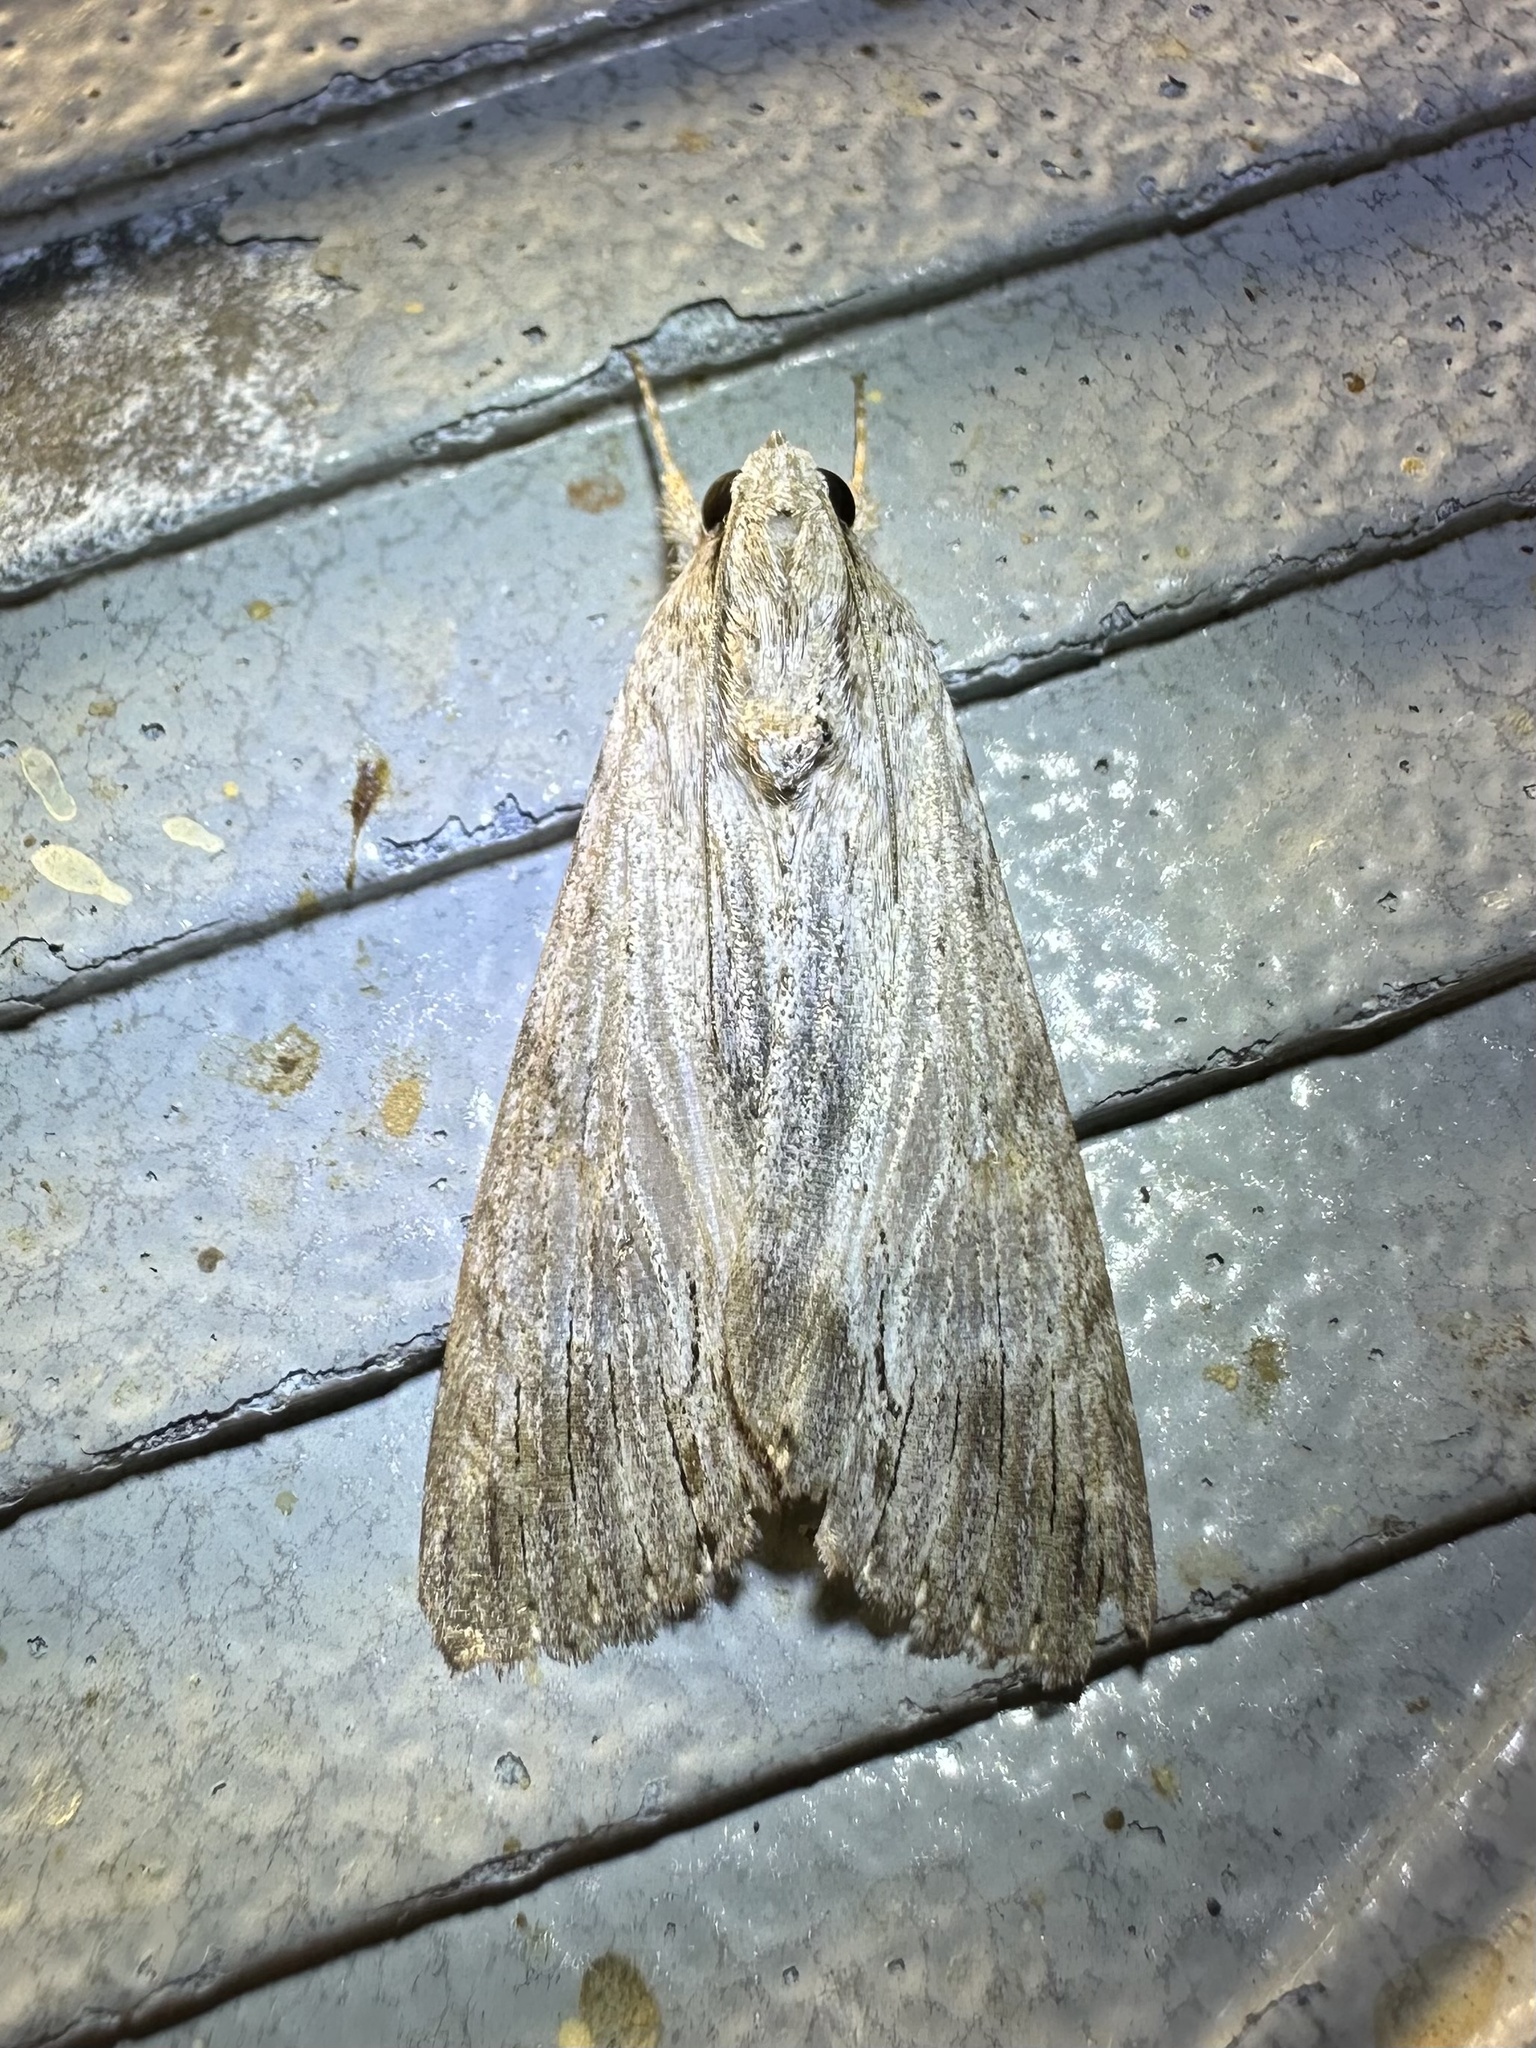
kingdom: Animalia
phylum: Arthropoda
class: Insecta
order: Lepidoptera
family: Erebidae
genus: Melipotis
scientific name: Melipotis acontioides
